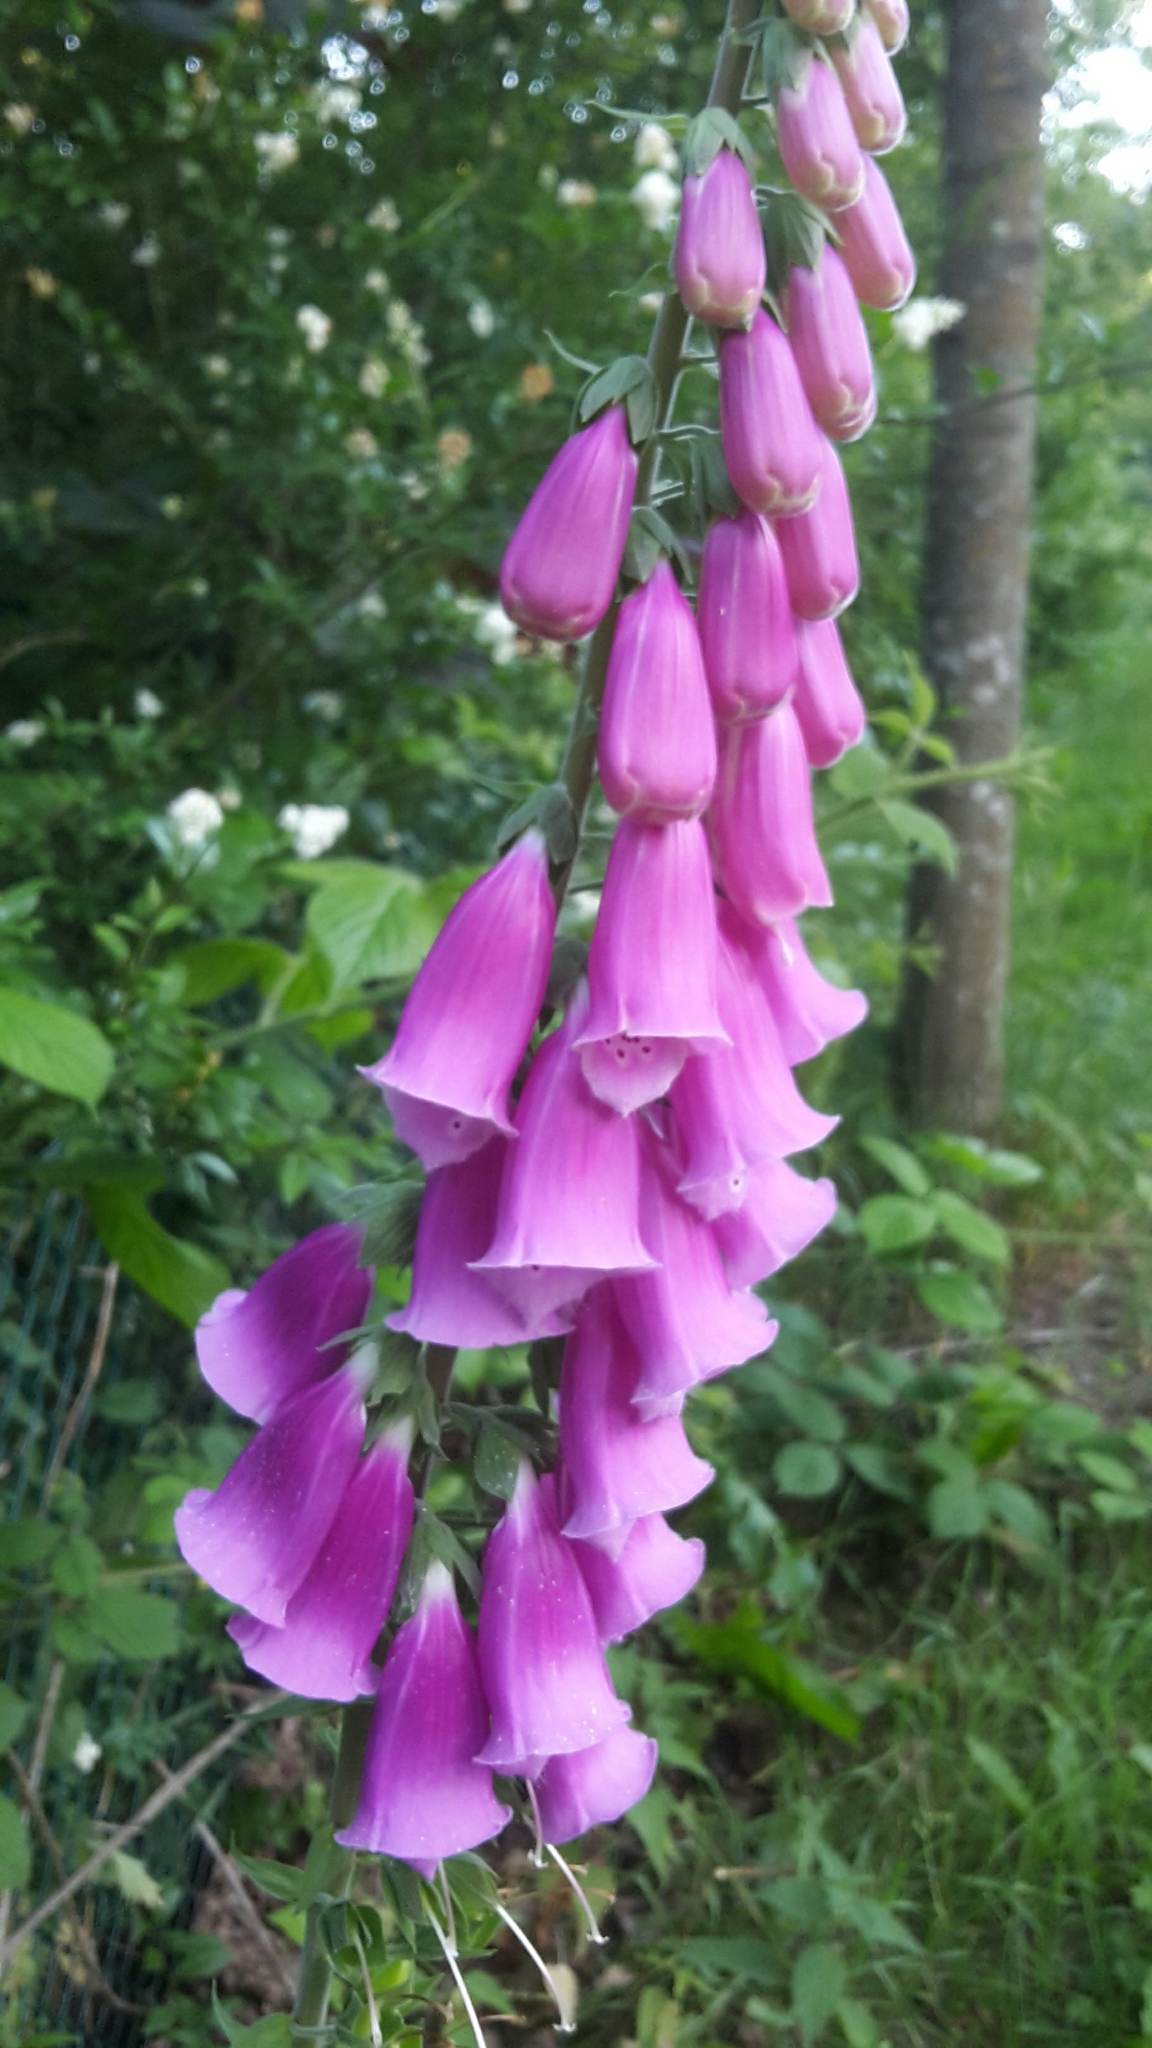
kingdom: Plantae
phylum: Tracheophyta
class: Magnoliopsida
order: Lamiales
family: Plantaginaceae
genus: Digitalis
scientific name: Digitalis purpurea
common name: Foxglove
